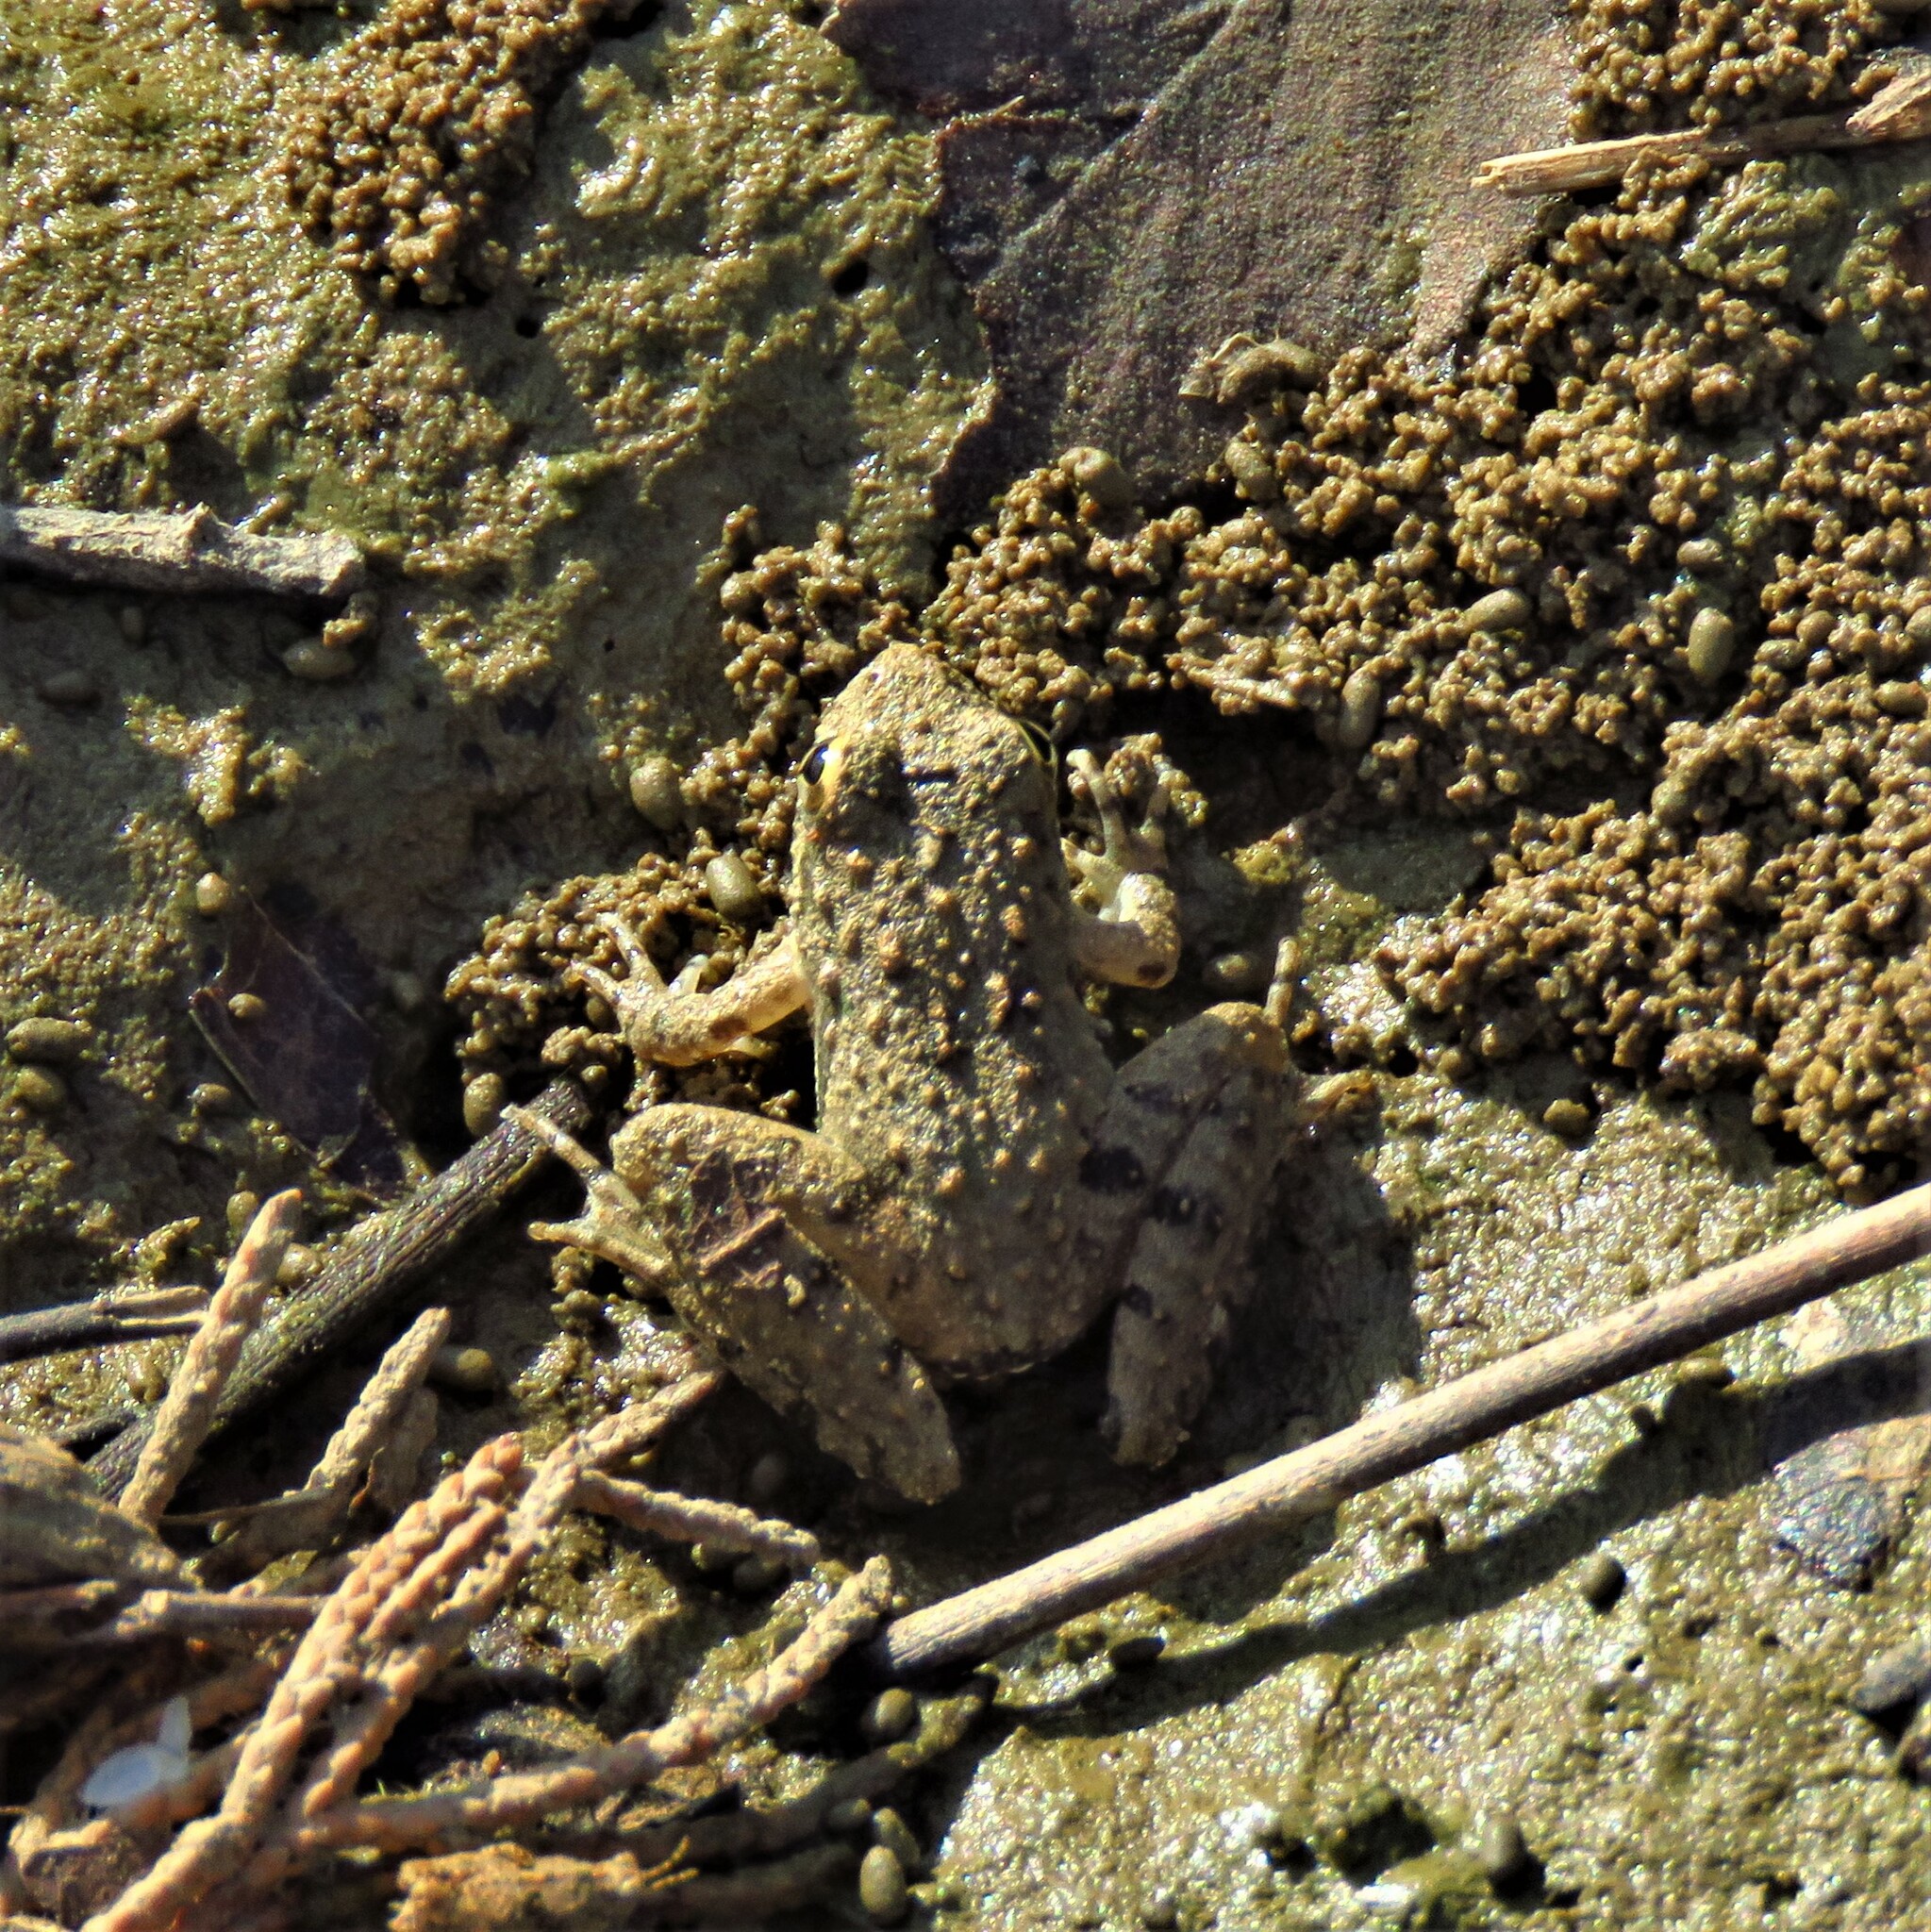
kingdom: Animalia
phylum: Chordata
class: Amphibia
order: Anura
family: Hylidae
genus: Acris
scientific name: Acris blanchardi
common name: Blanchard's cricket frog
